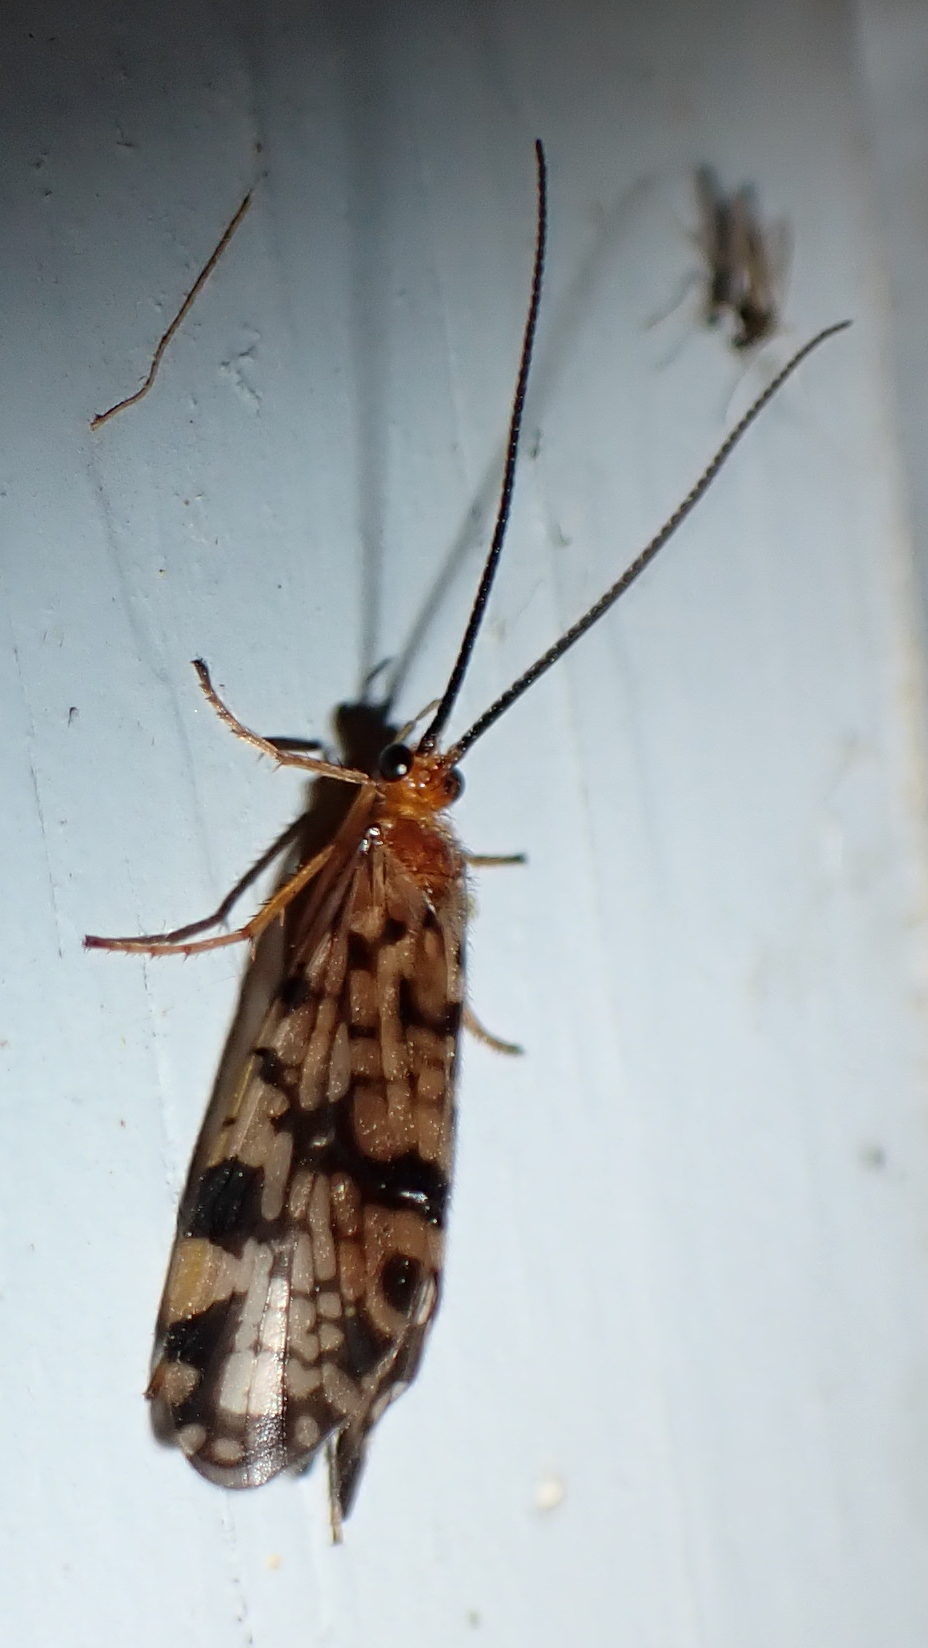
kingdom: Animalia
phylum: Arthropoda
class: Insecta
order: Trichoptera
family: Phryganeidae
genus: Banksiola
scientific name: Banksiola dossuaria
